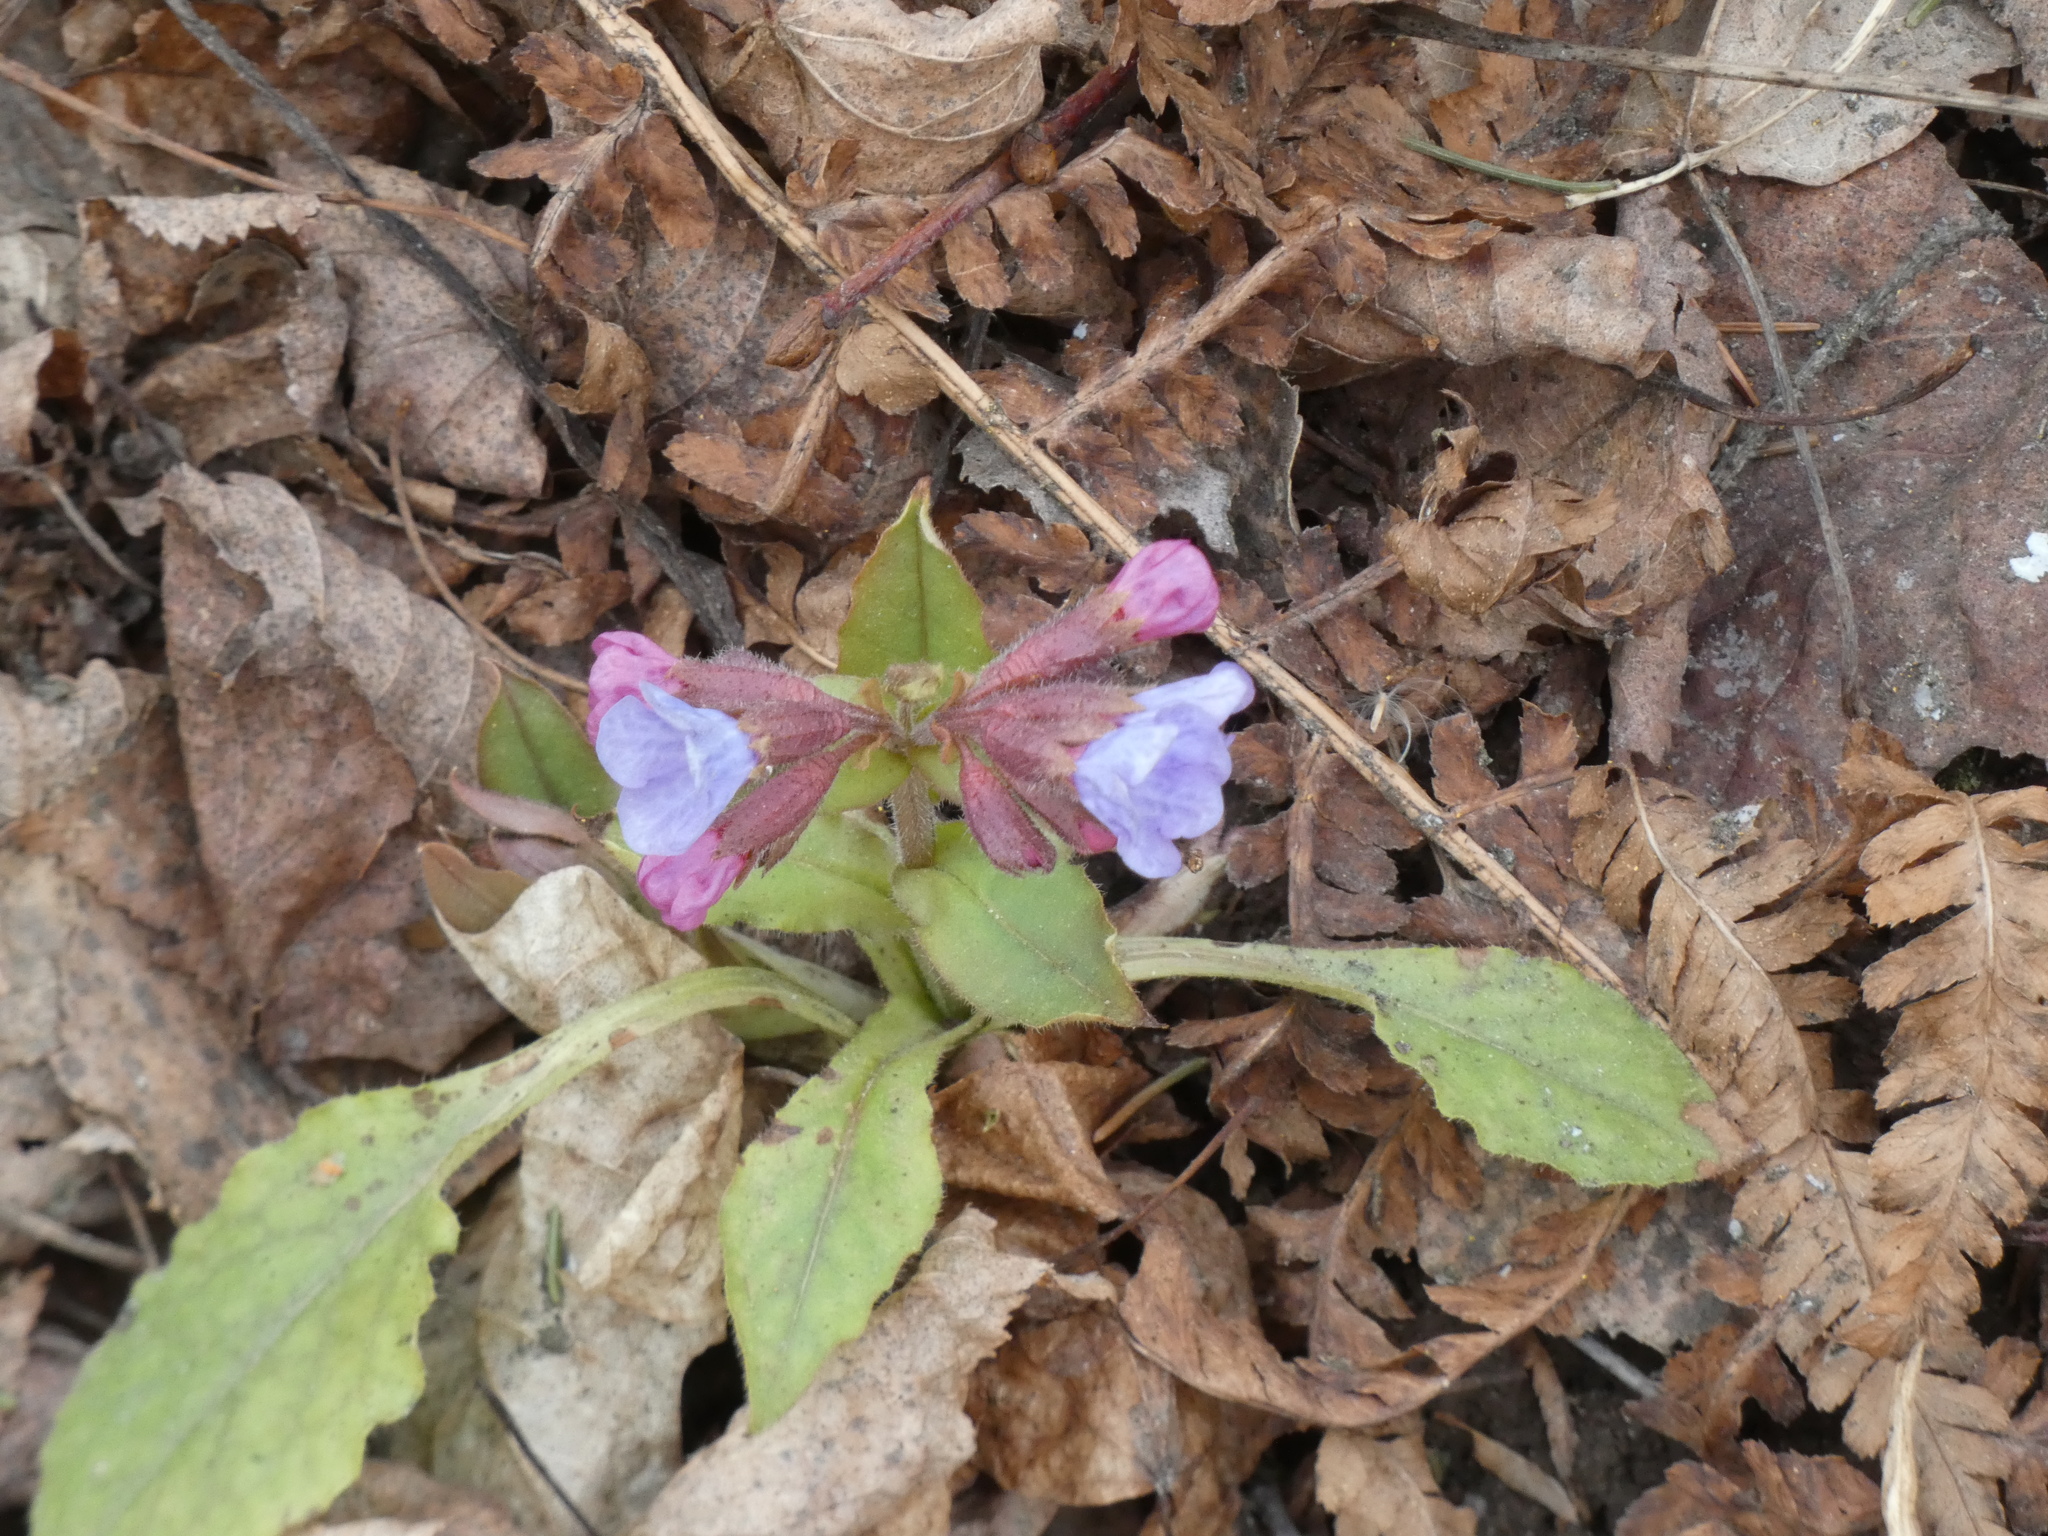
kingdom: Plantae
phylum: Tracheophyta
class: Magnoliopsida
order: Boraginales
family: Boraginaceae
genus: Pulmonaria
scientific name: Pulmonaria obscura
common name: Suffolk lungwort
